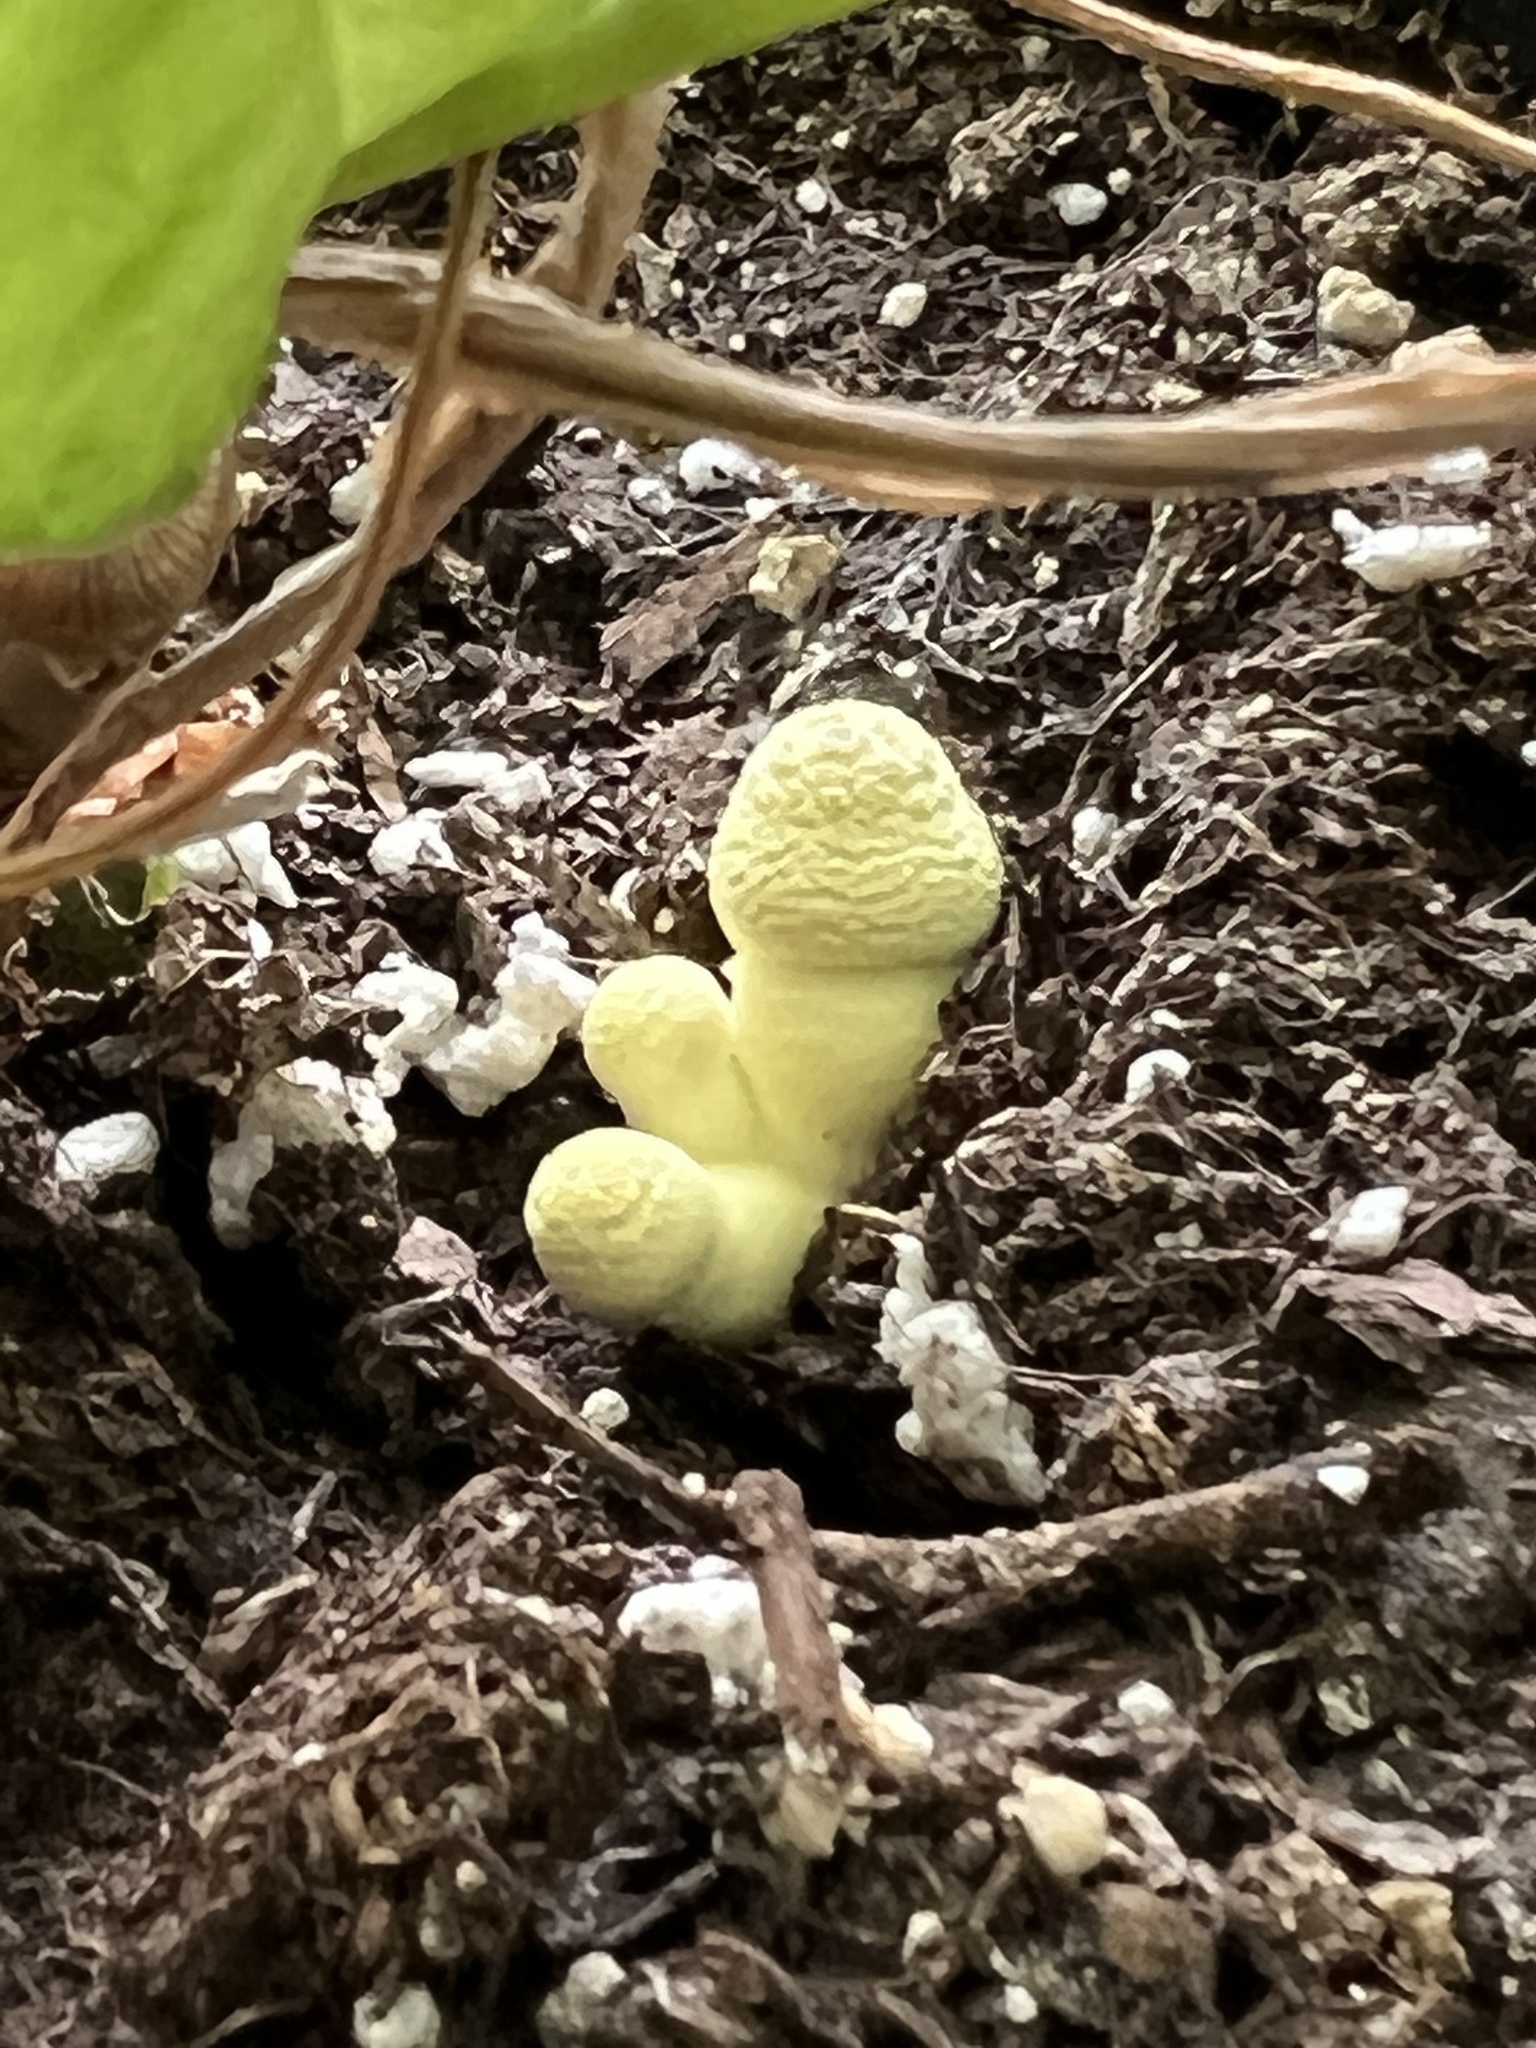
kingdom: Fungi
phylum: Basidiomycota
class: Agaricomycetes
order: Agaricales
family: Agaricaceae
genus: Leucocoprinus
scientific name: Leucocoprinus birnbaumii
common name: Plantpot dapperling
